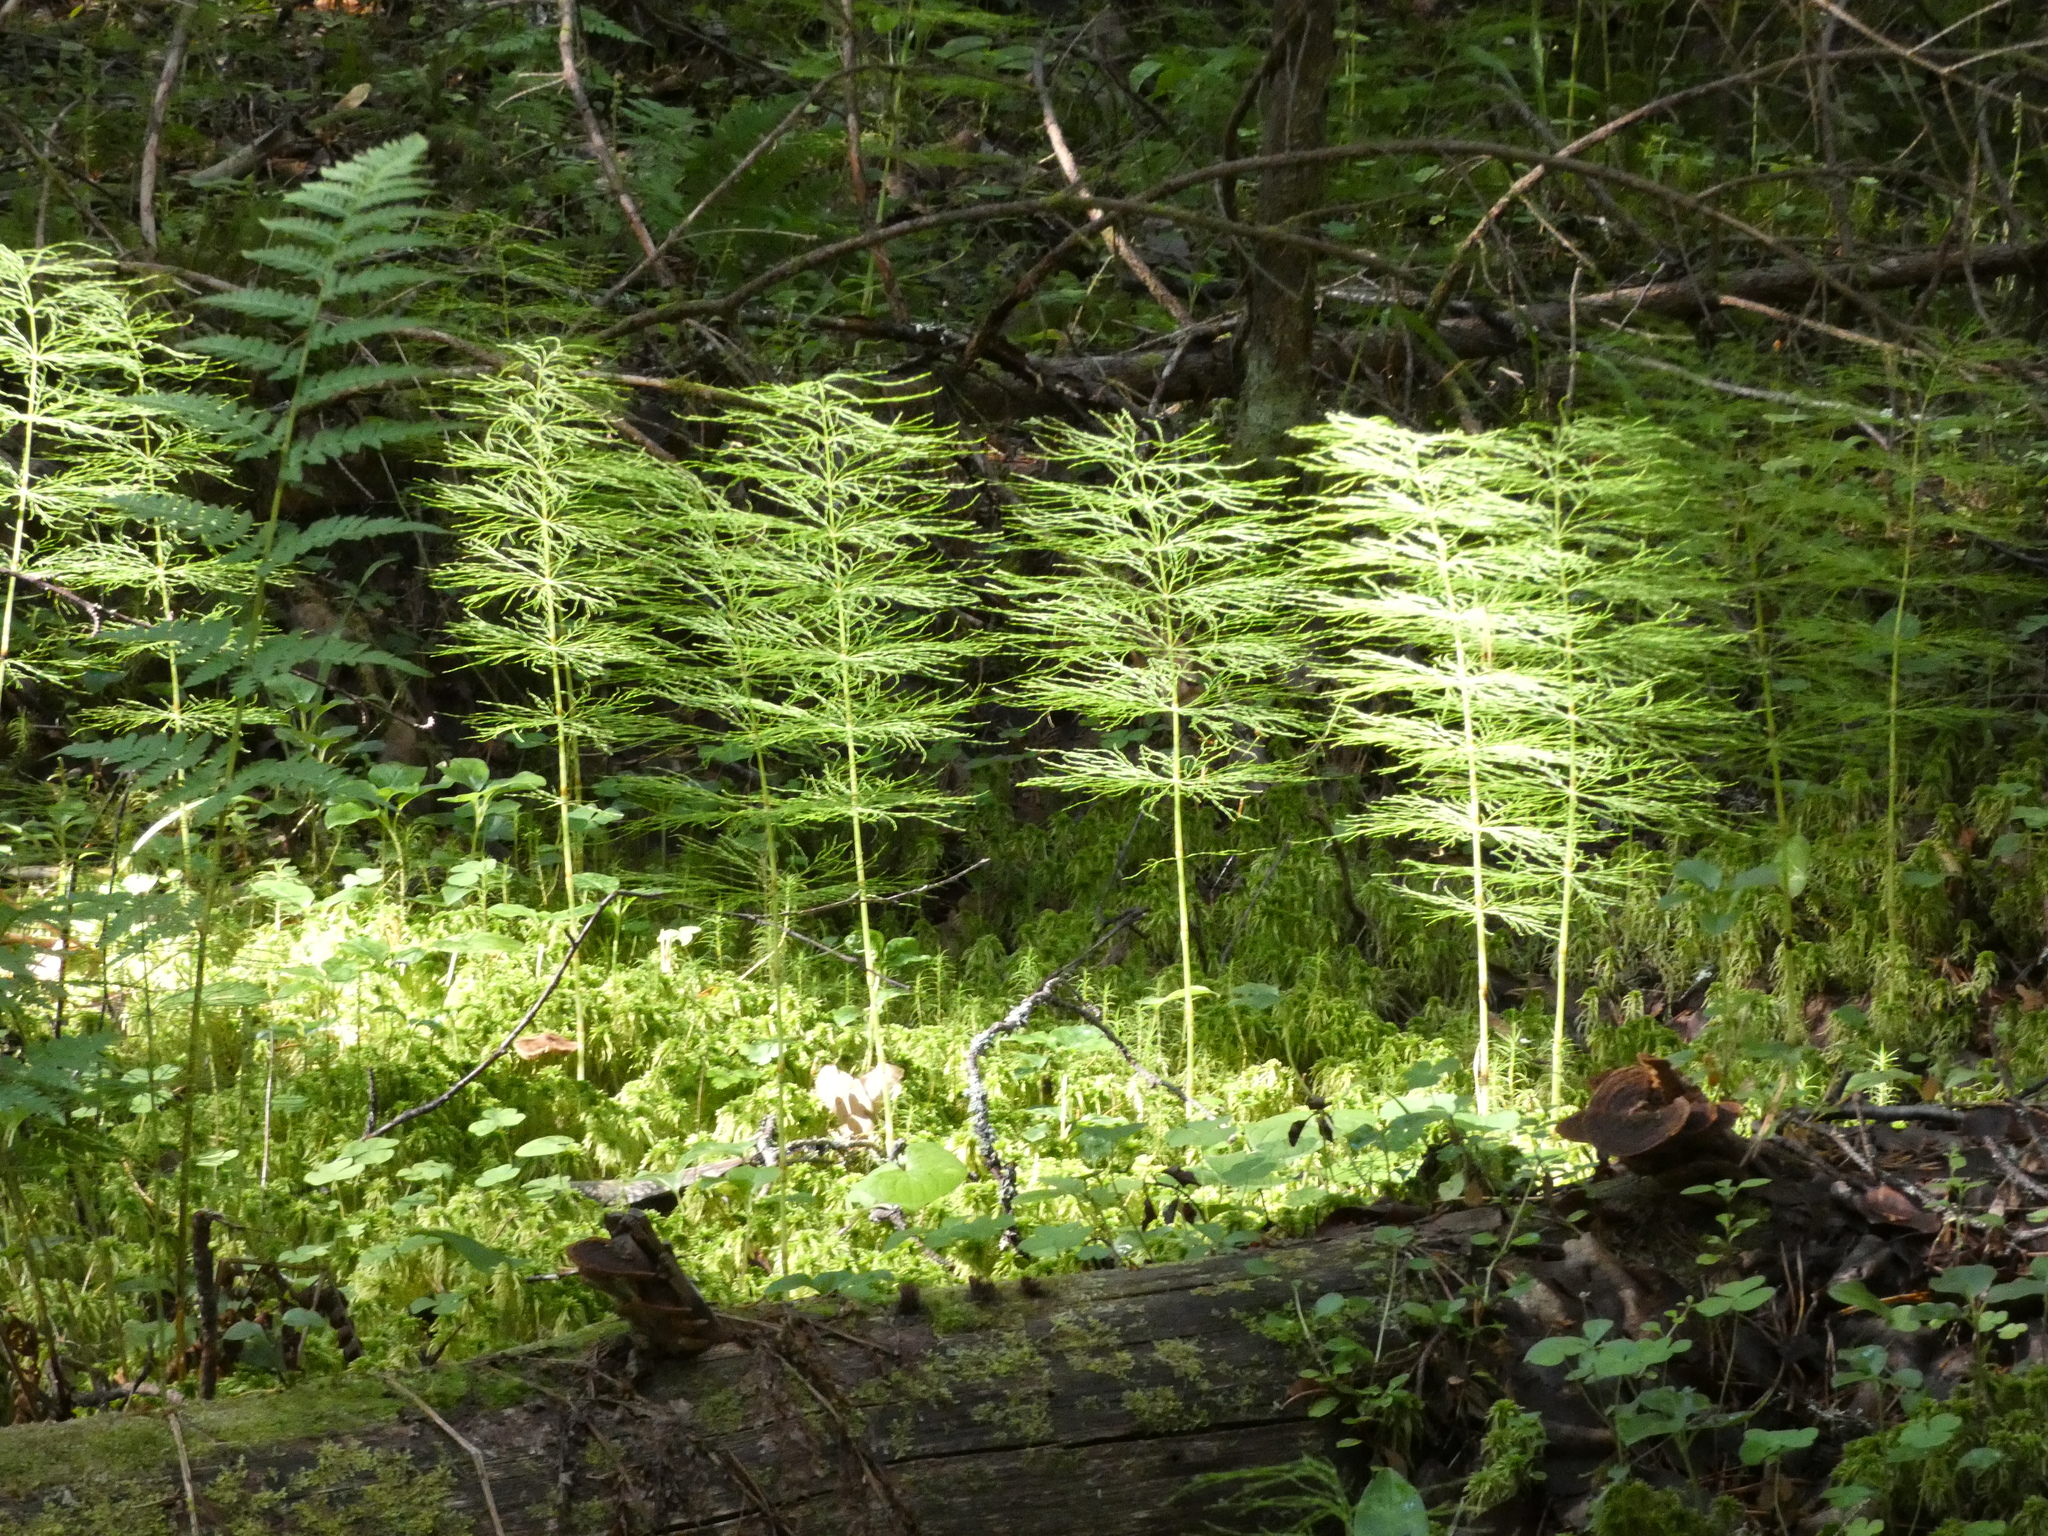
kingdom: Plantae
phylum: Tracheophyta
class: Polypodiopsida
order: Equisetales
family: Equisetaceae
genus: Equisetum
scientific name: Equisetum sylvaticum
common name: Wood horsetail
